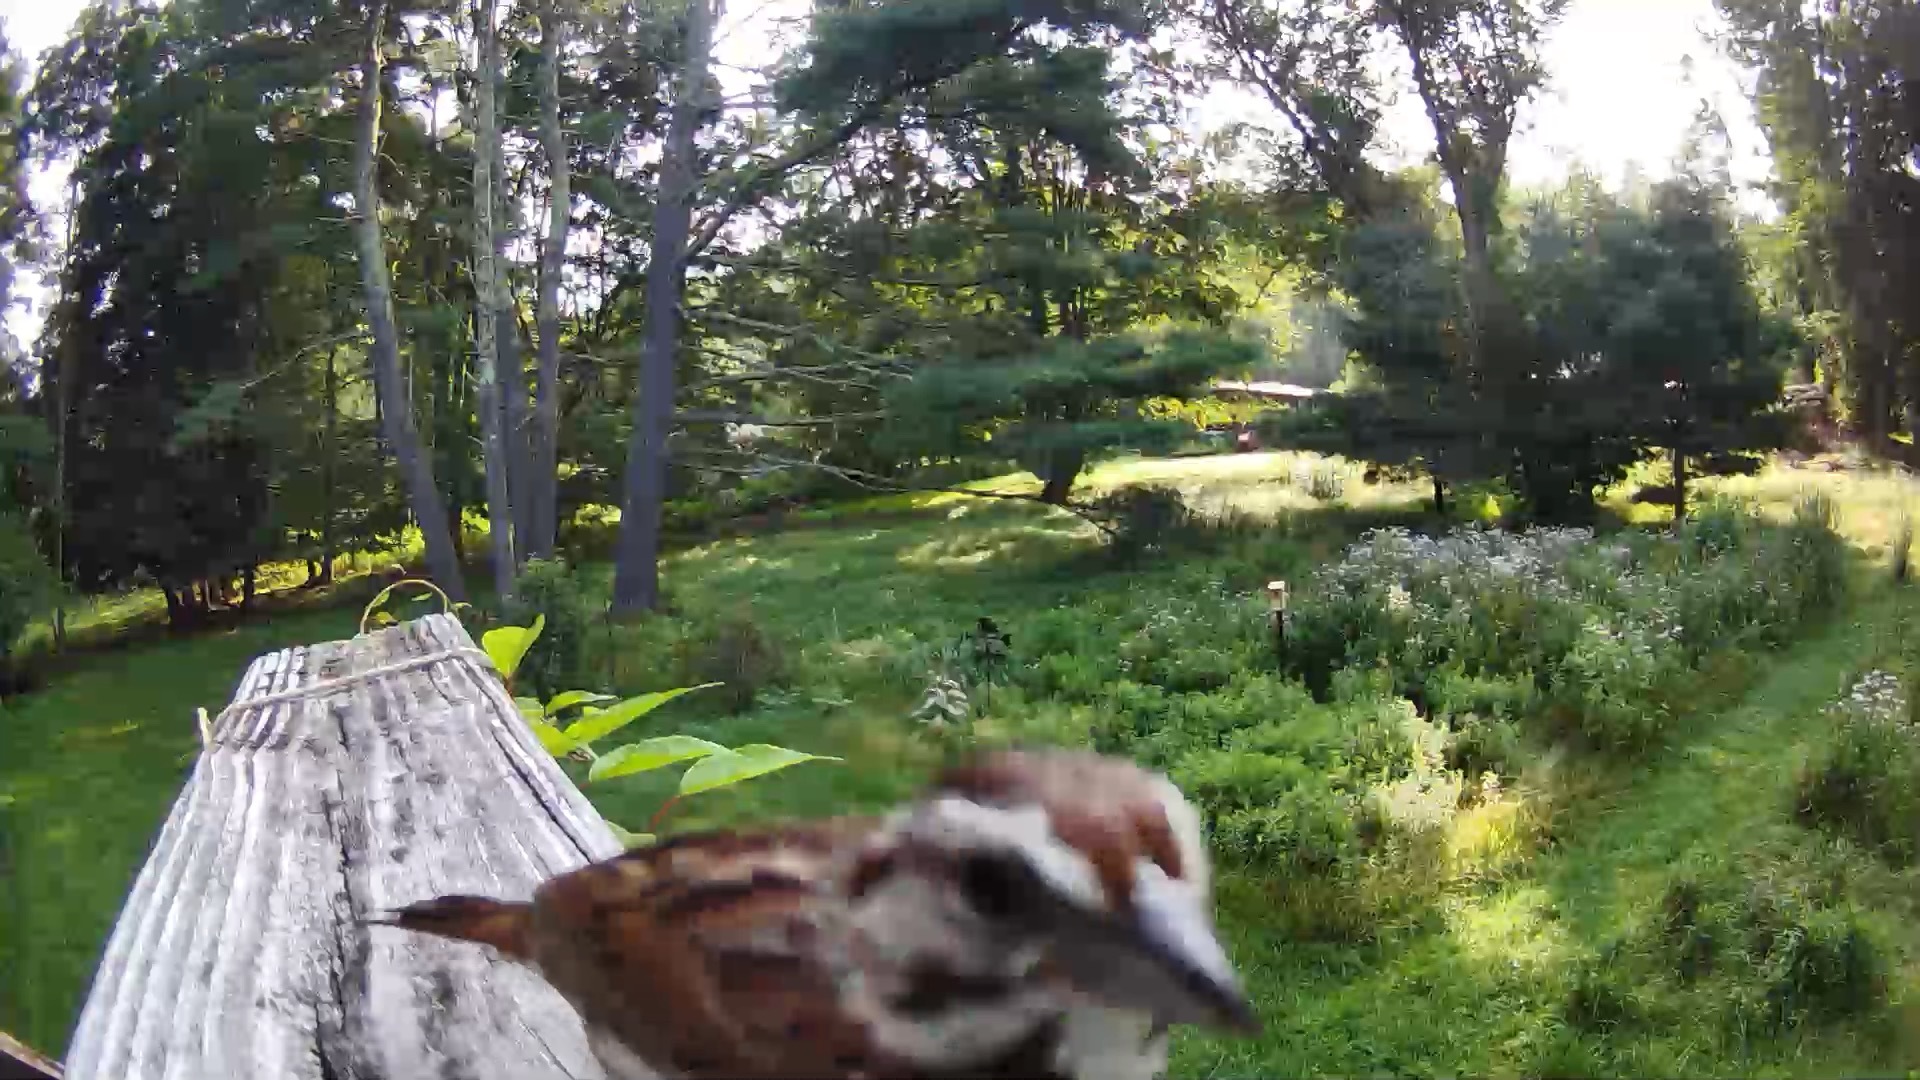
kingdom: Animalia
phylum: Chordata
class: Aves
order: Passeriformes
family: Passerellidae
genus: Melospiza
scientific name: Melospiza melodia
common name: Song sparrow
